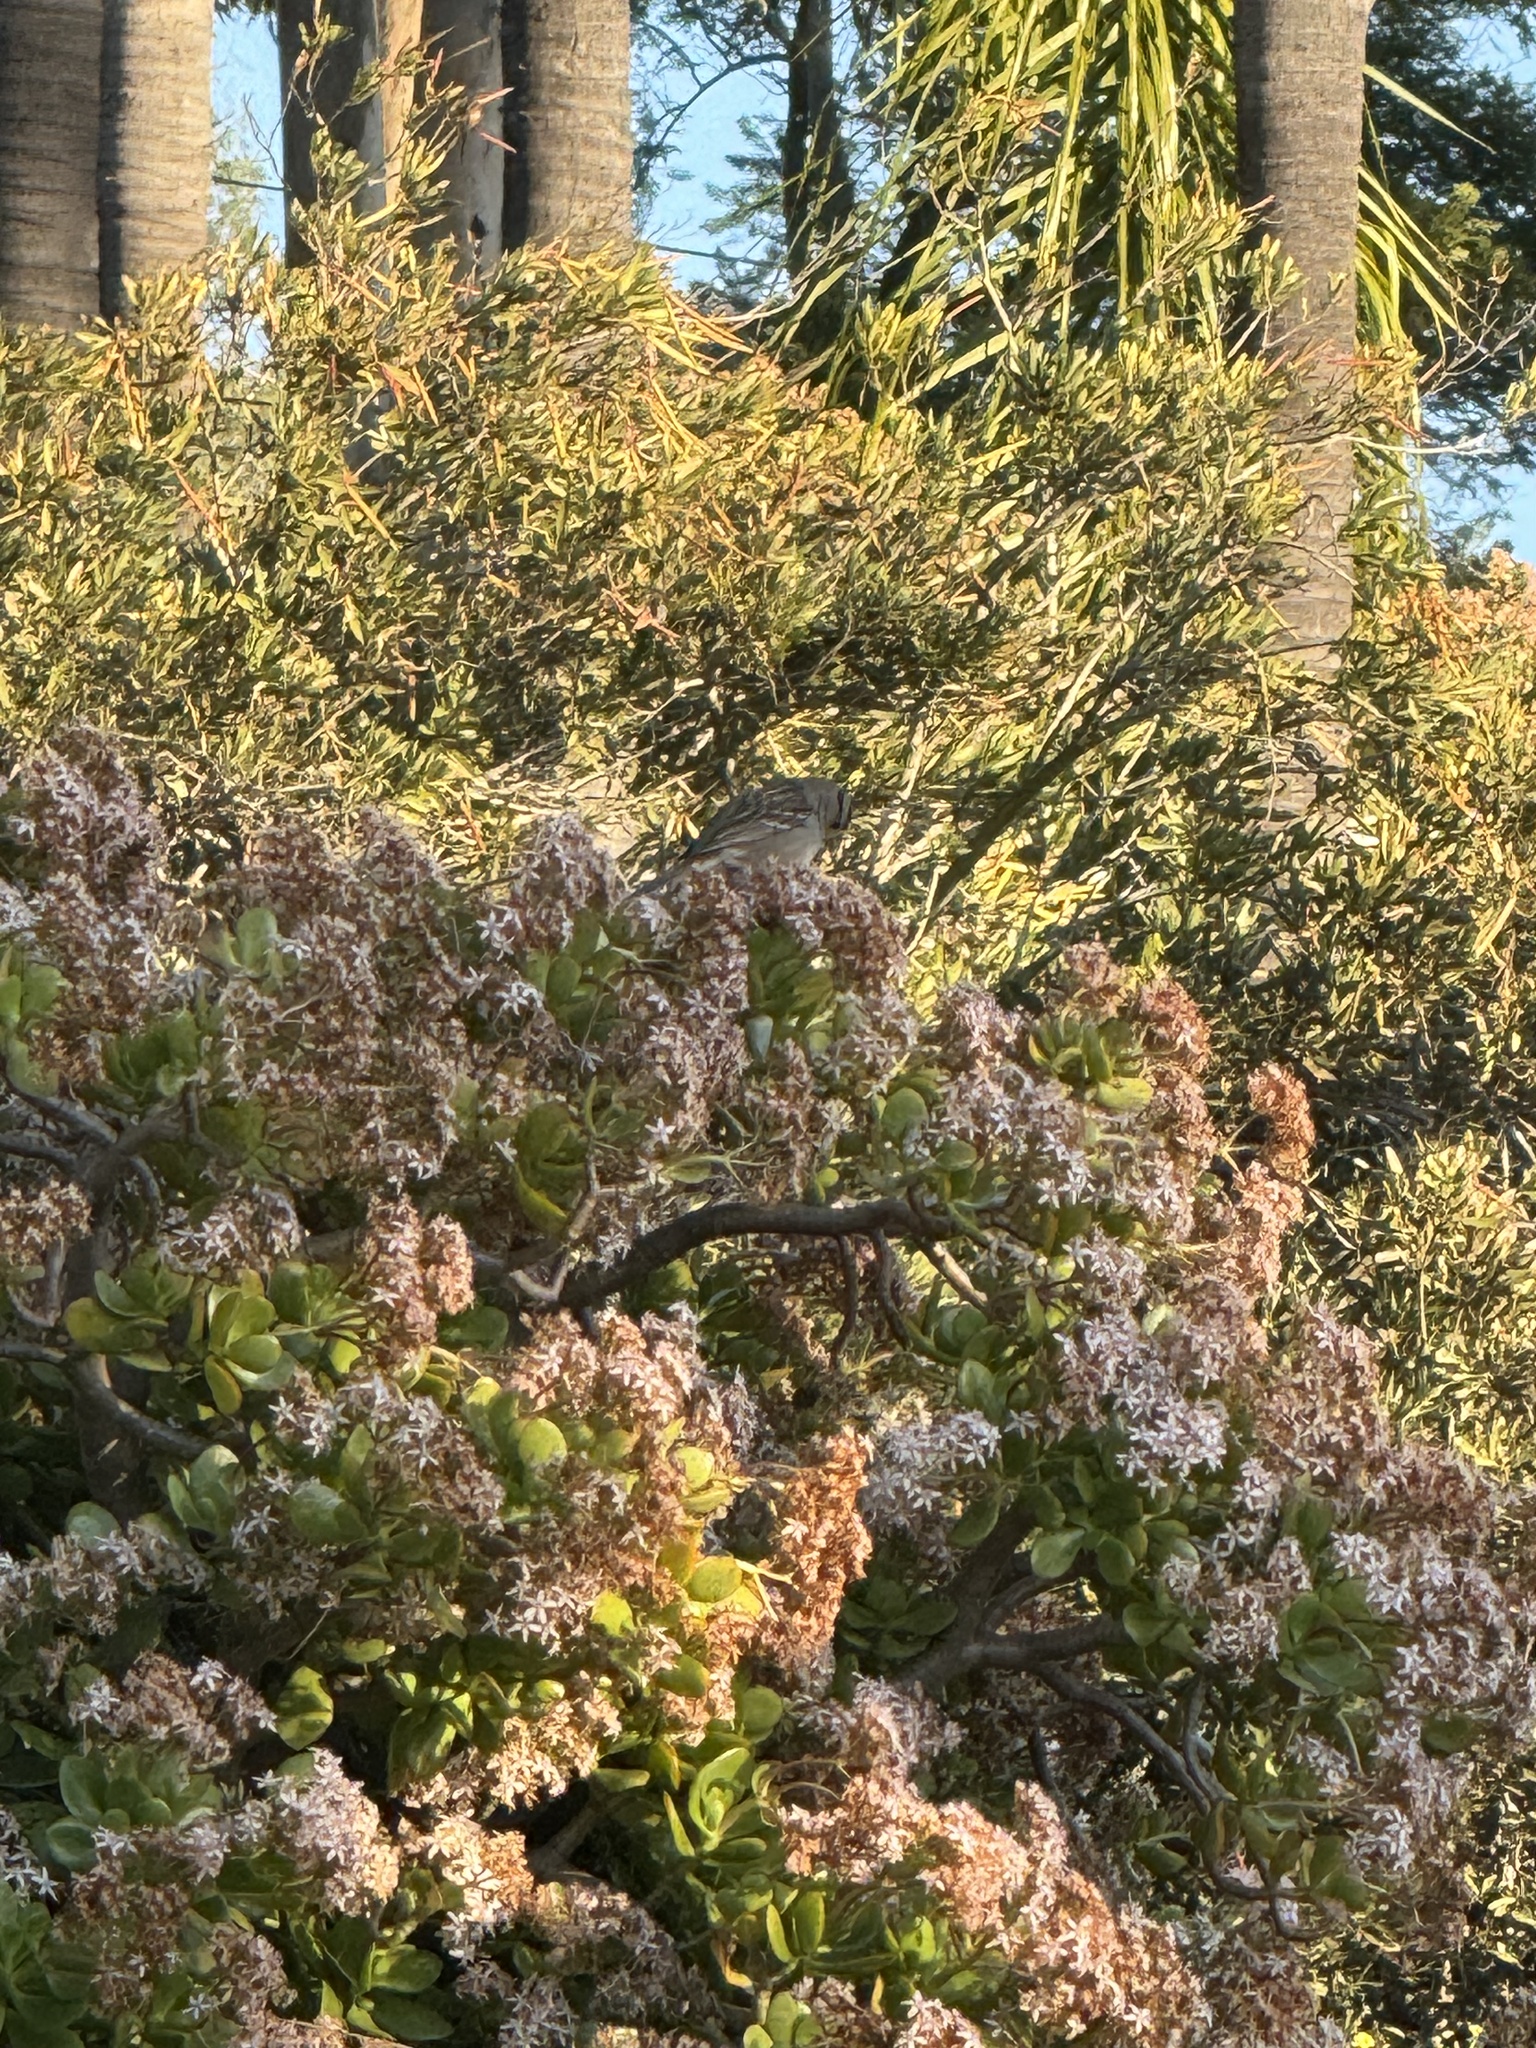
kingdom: Animalia
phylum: Chordata
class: Aves
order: Passeriformes
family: Passerellidae
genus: Zonotrichia
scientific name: Zonotrichia leucophrys
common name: White-crowned sparrow
